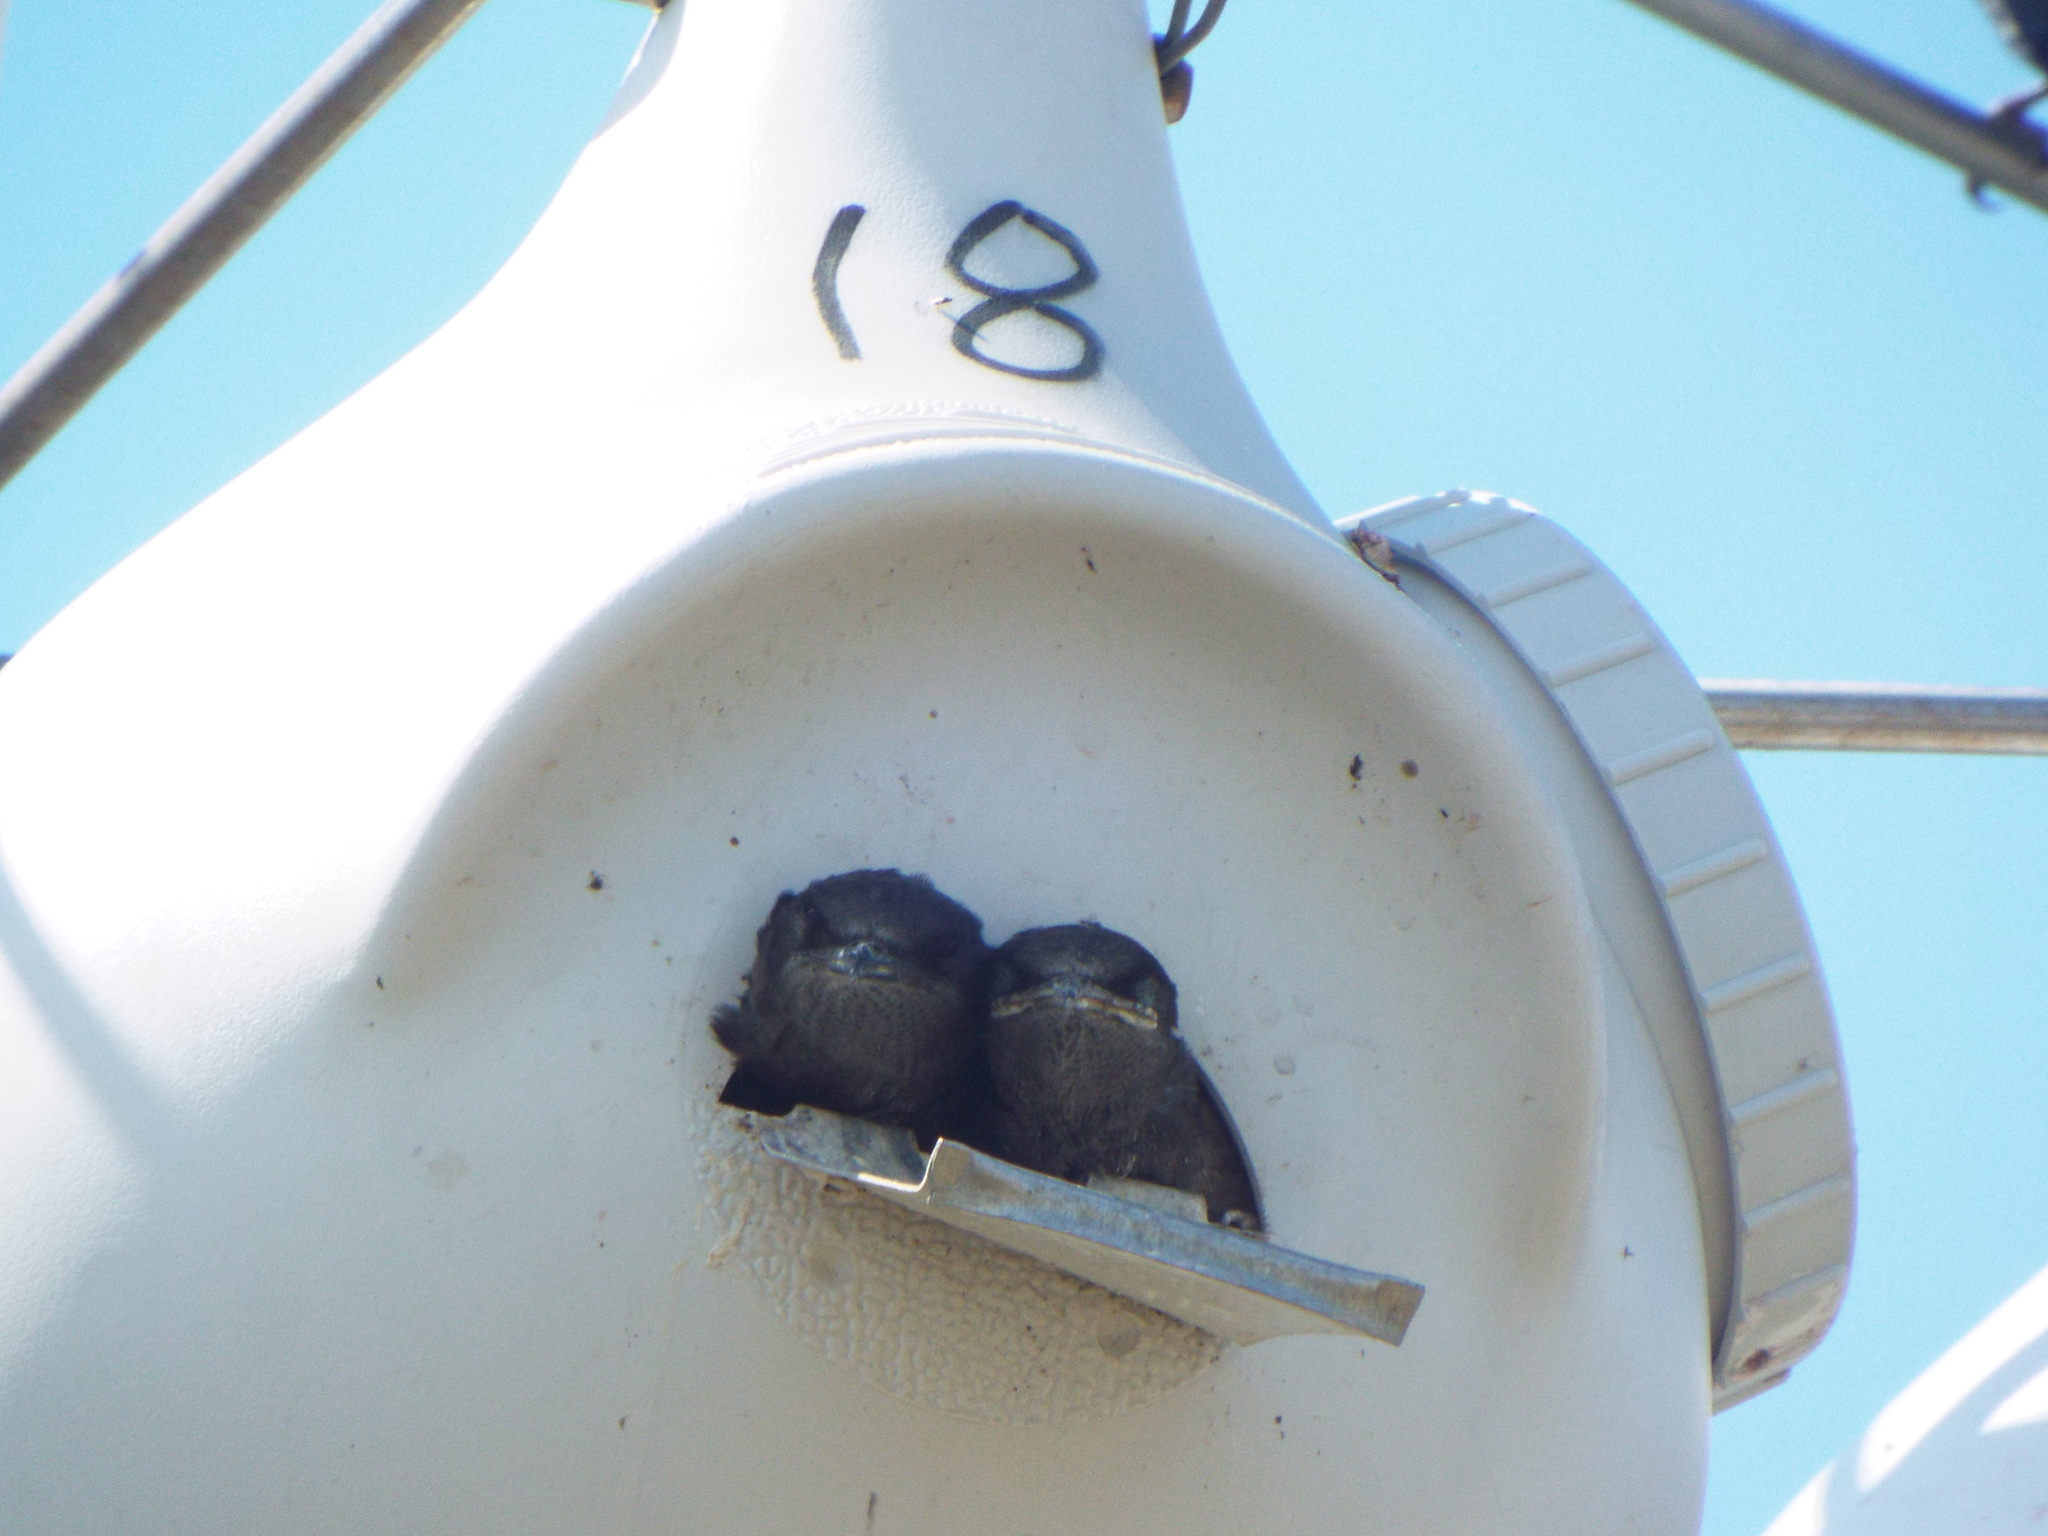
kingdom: Animalia
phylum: Chordata
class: Aves
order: Passeriformes
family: Hirundinidae
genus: Progne
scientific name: Progne subis
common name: Purple martin
